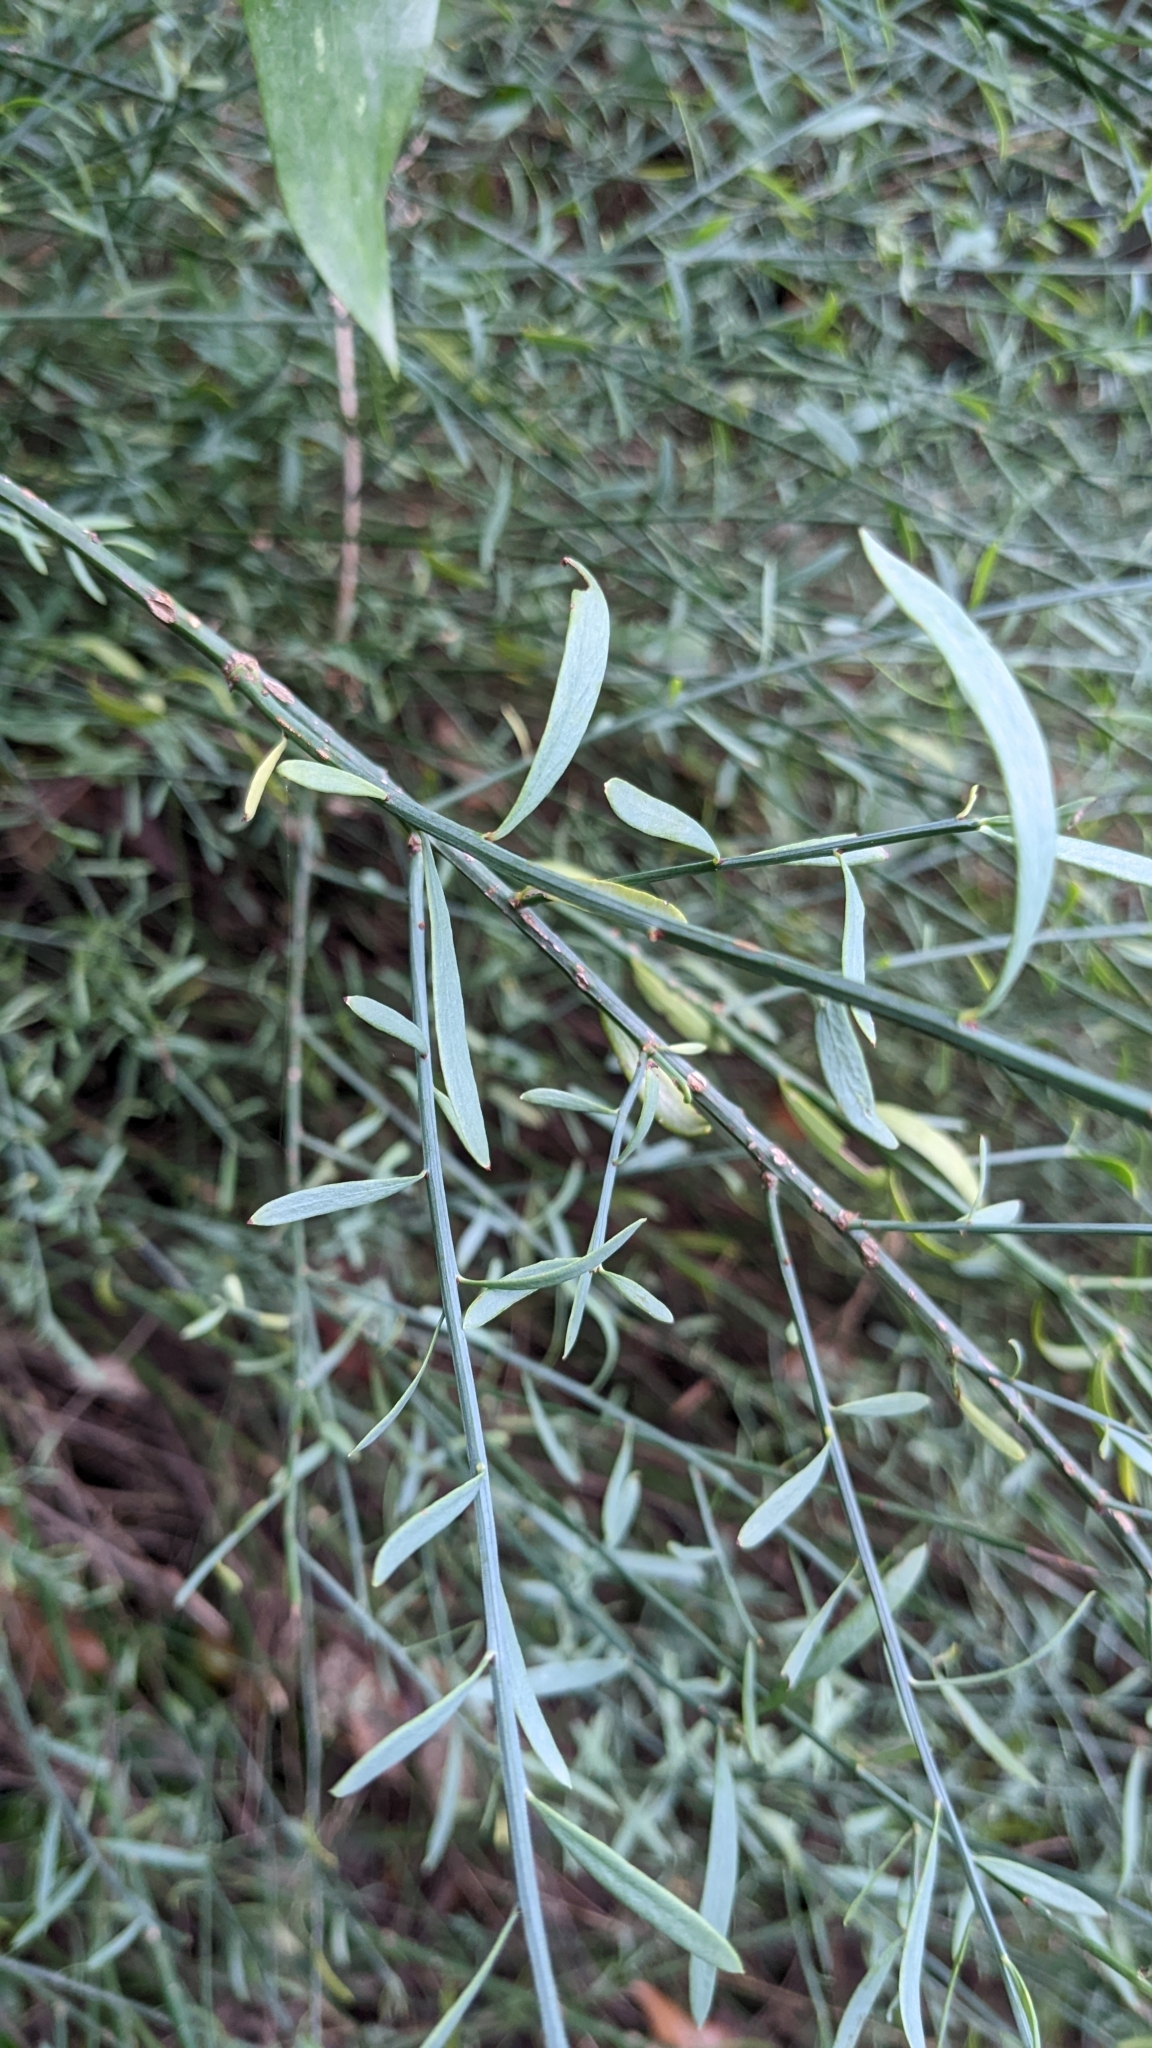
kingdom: Plantae
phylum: Tracheophyta
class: Magnoliopsida
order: Santalales
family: Santalaceae
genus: Osyris
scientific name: Osyris alba
